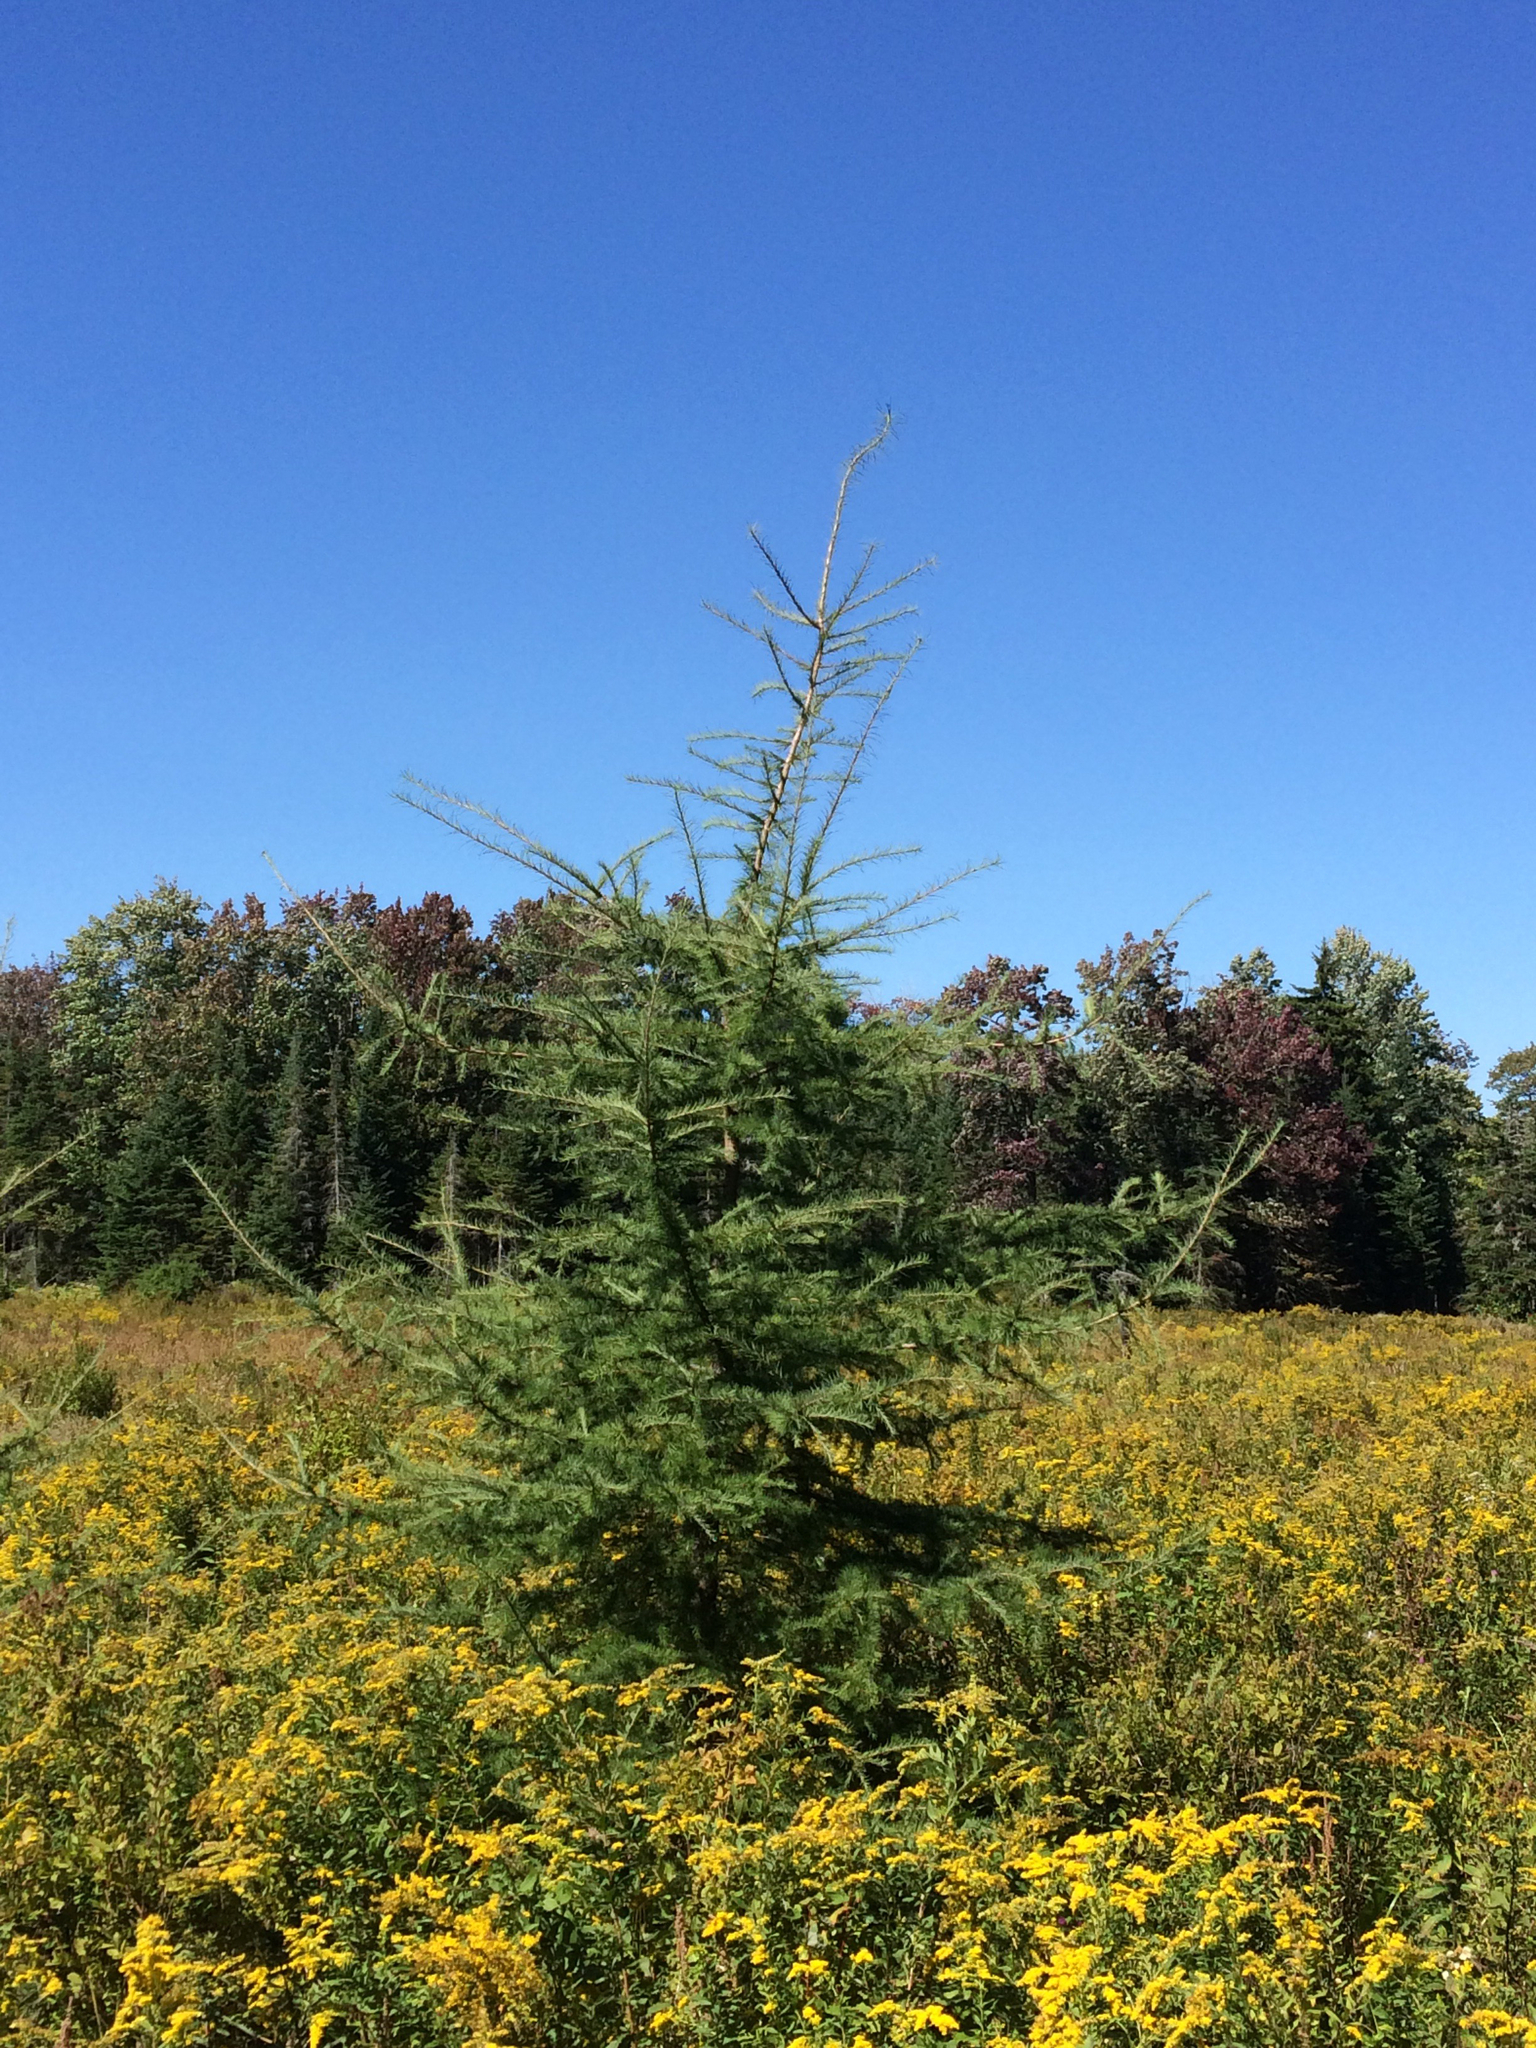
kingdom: Plantae
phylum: Tracheophyta
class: Pinopsida
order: Pinales
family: Pinaceae
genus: Larix
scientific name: Larix laricina
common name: American larch
